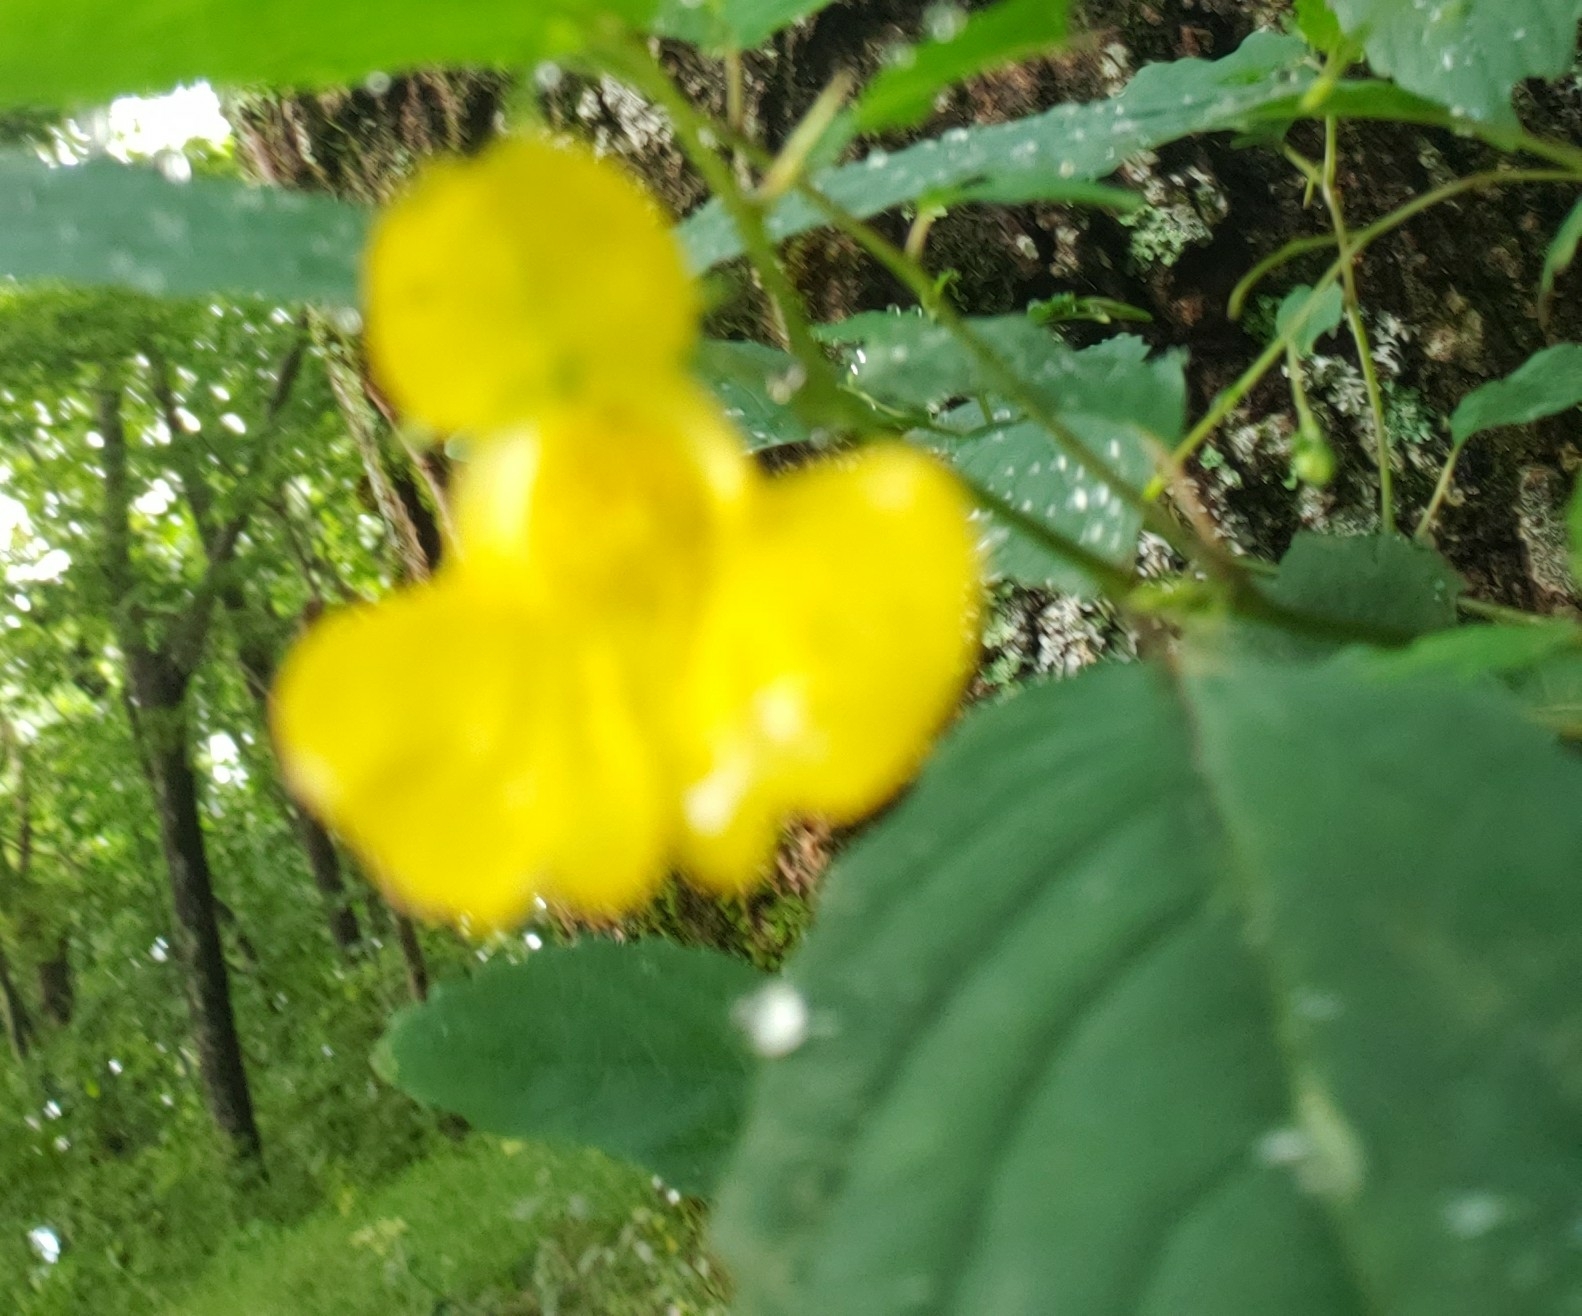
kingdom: Plantae
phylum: Tracheophyta
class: Magnoliopsida
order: Ericales
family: Balsaminaceae
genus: Impatiens
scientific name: Impatiens pallida
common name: Pale snapweed
